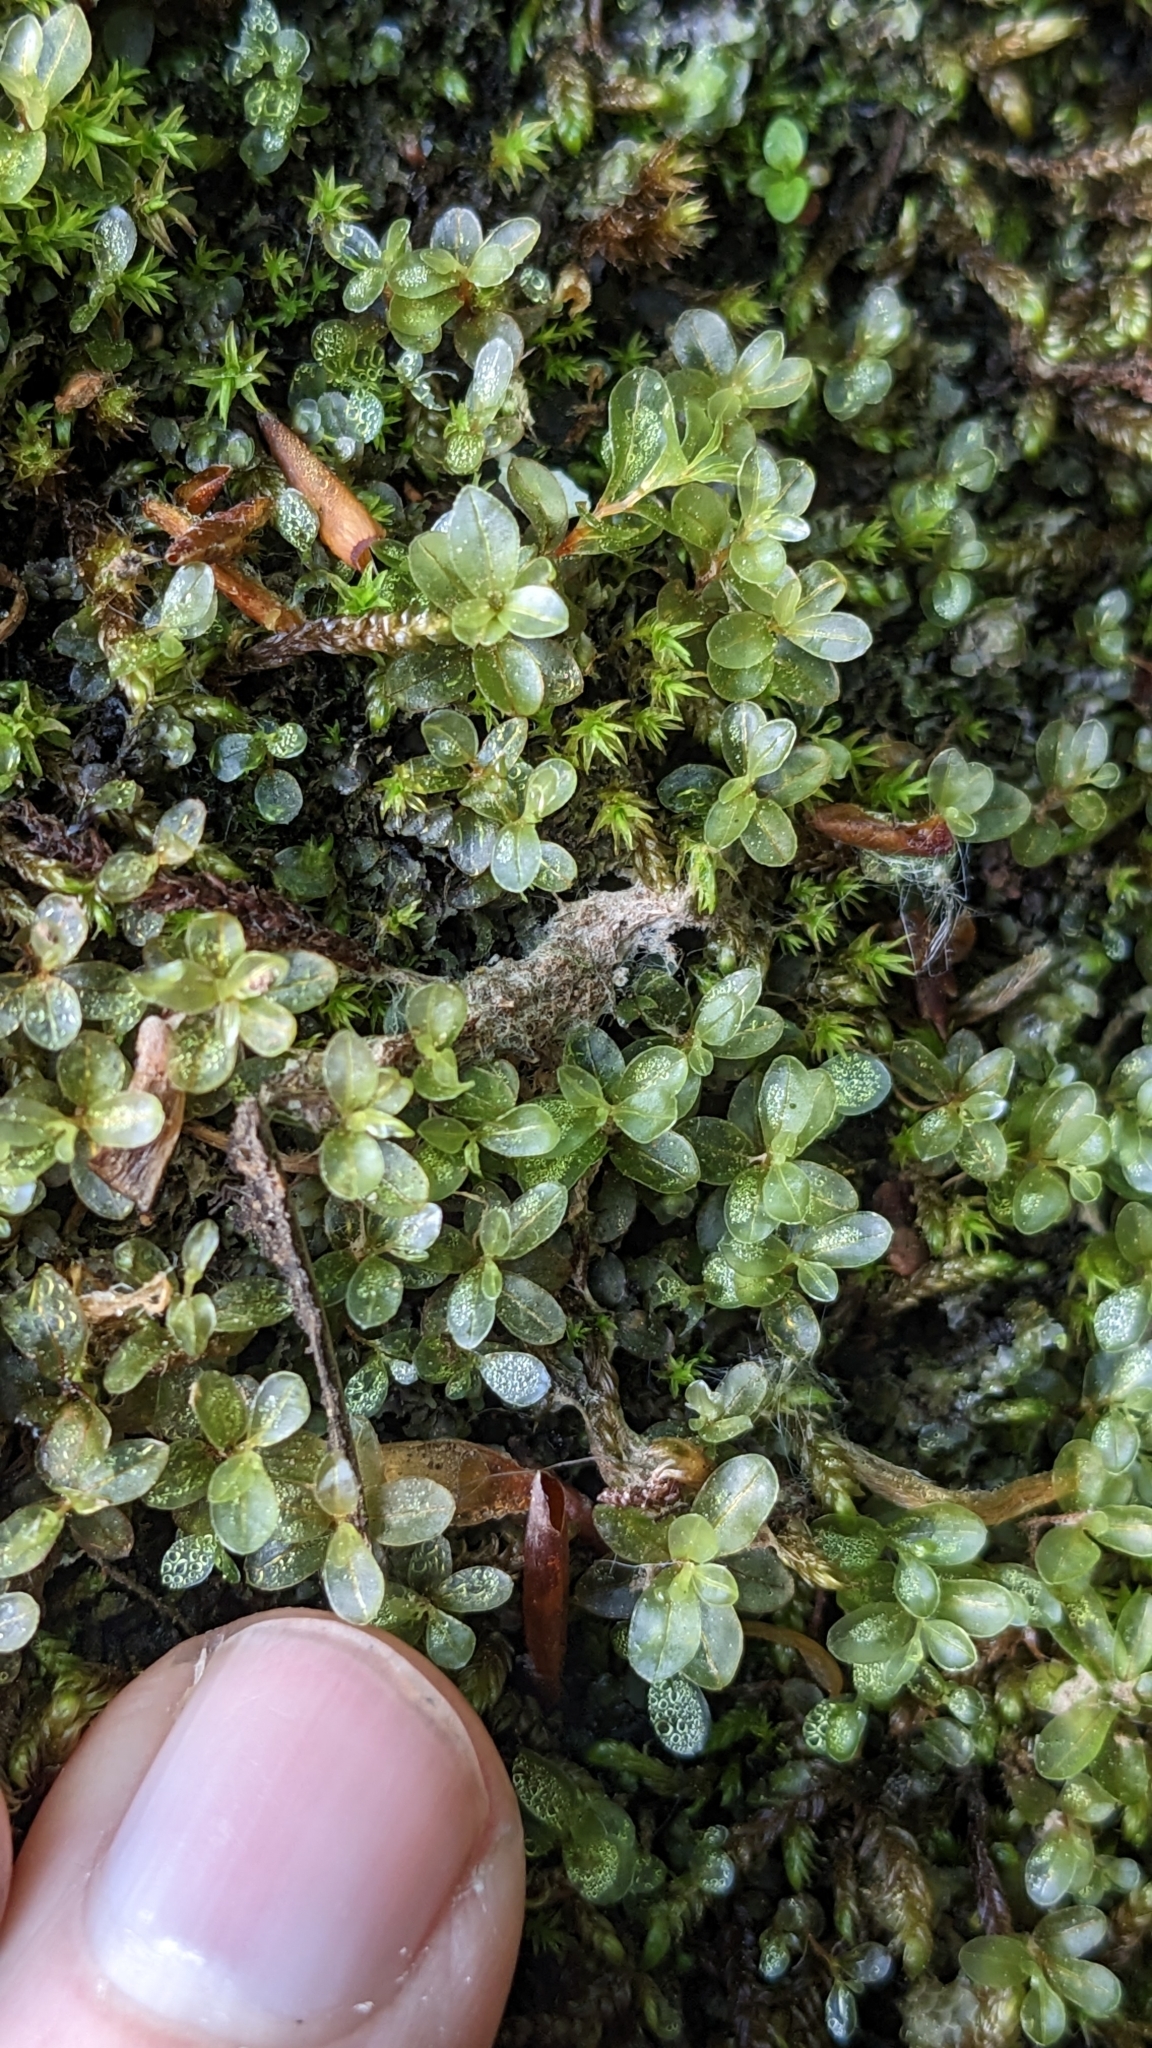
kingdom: Plantae
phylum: Bryophyta
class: Bryopsida
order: Bryales
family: Mniaceae
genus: Rhizomnium
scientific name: Rhizomnium punctatum
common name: Dotted leafy moss
